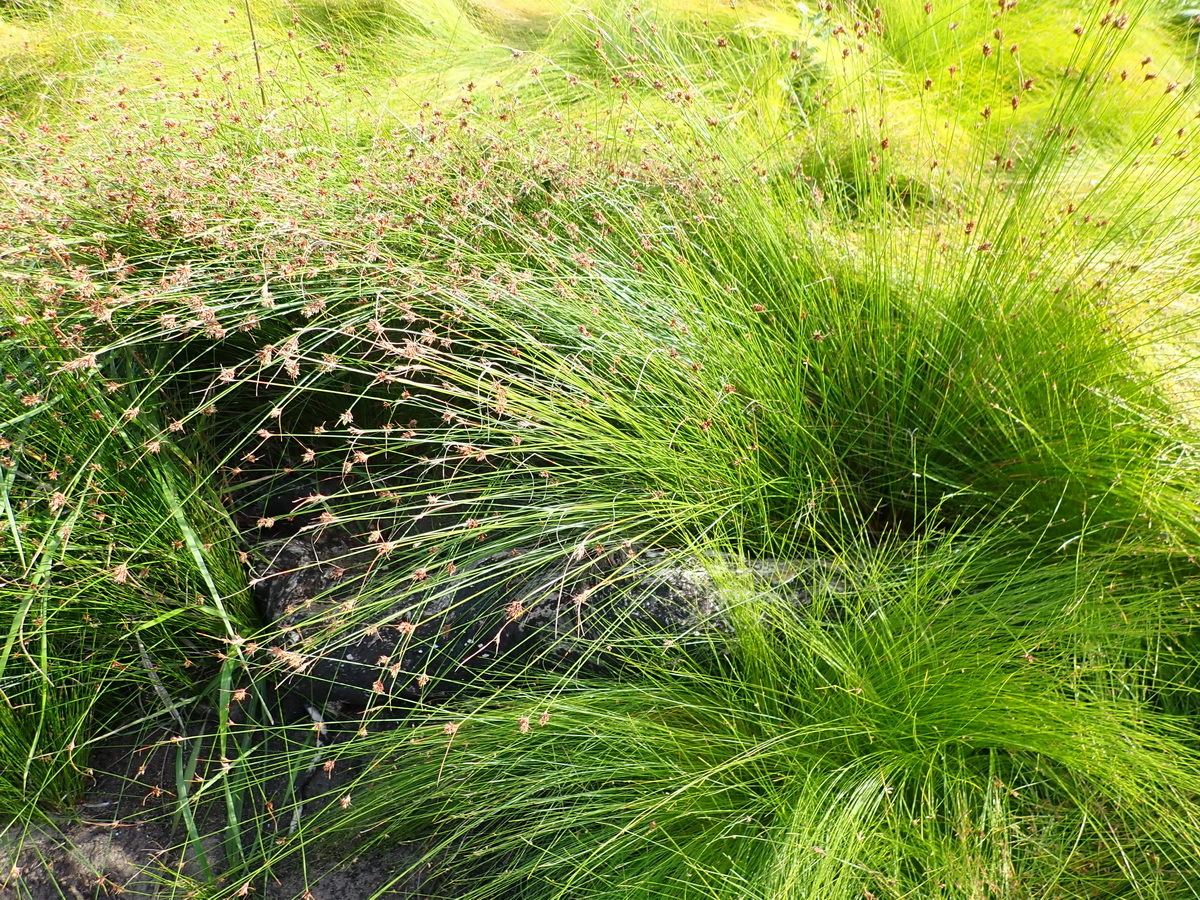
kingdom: Plantae
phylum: Tracheophyta
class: Liliopsida
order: Poales
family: Cyperaceae
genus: Ficinia
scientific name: Ficinia fascicularis
